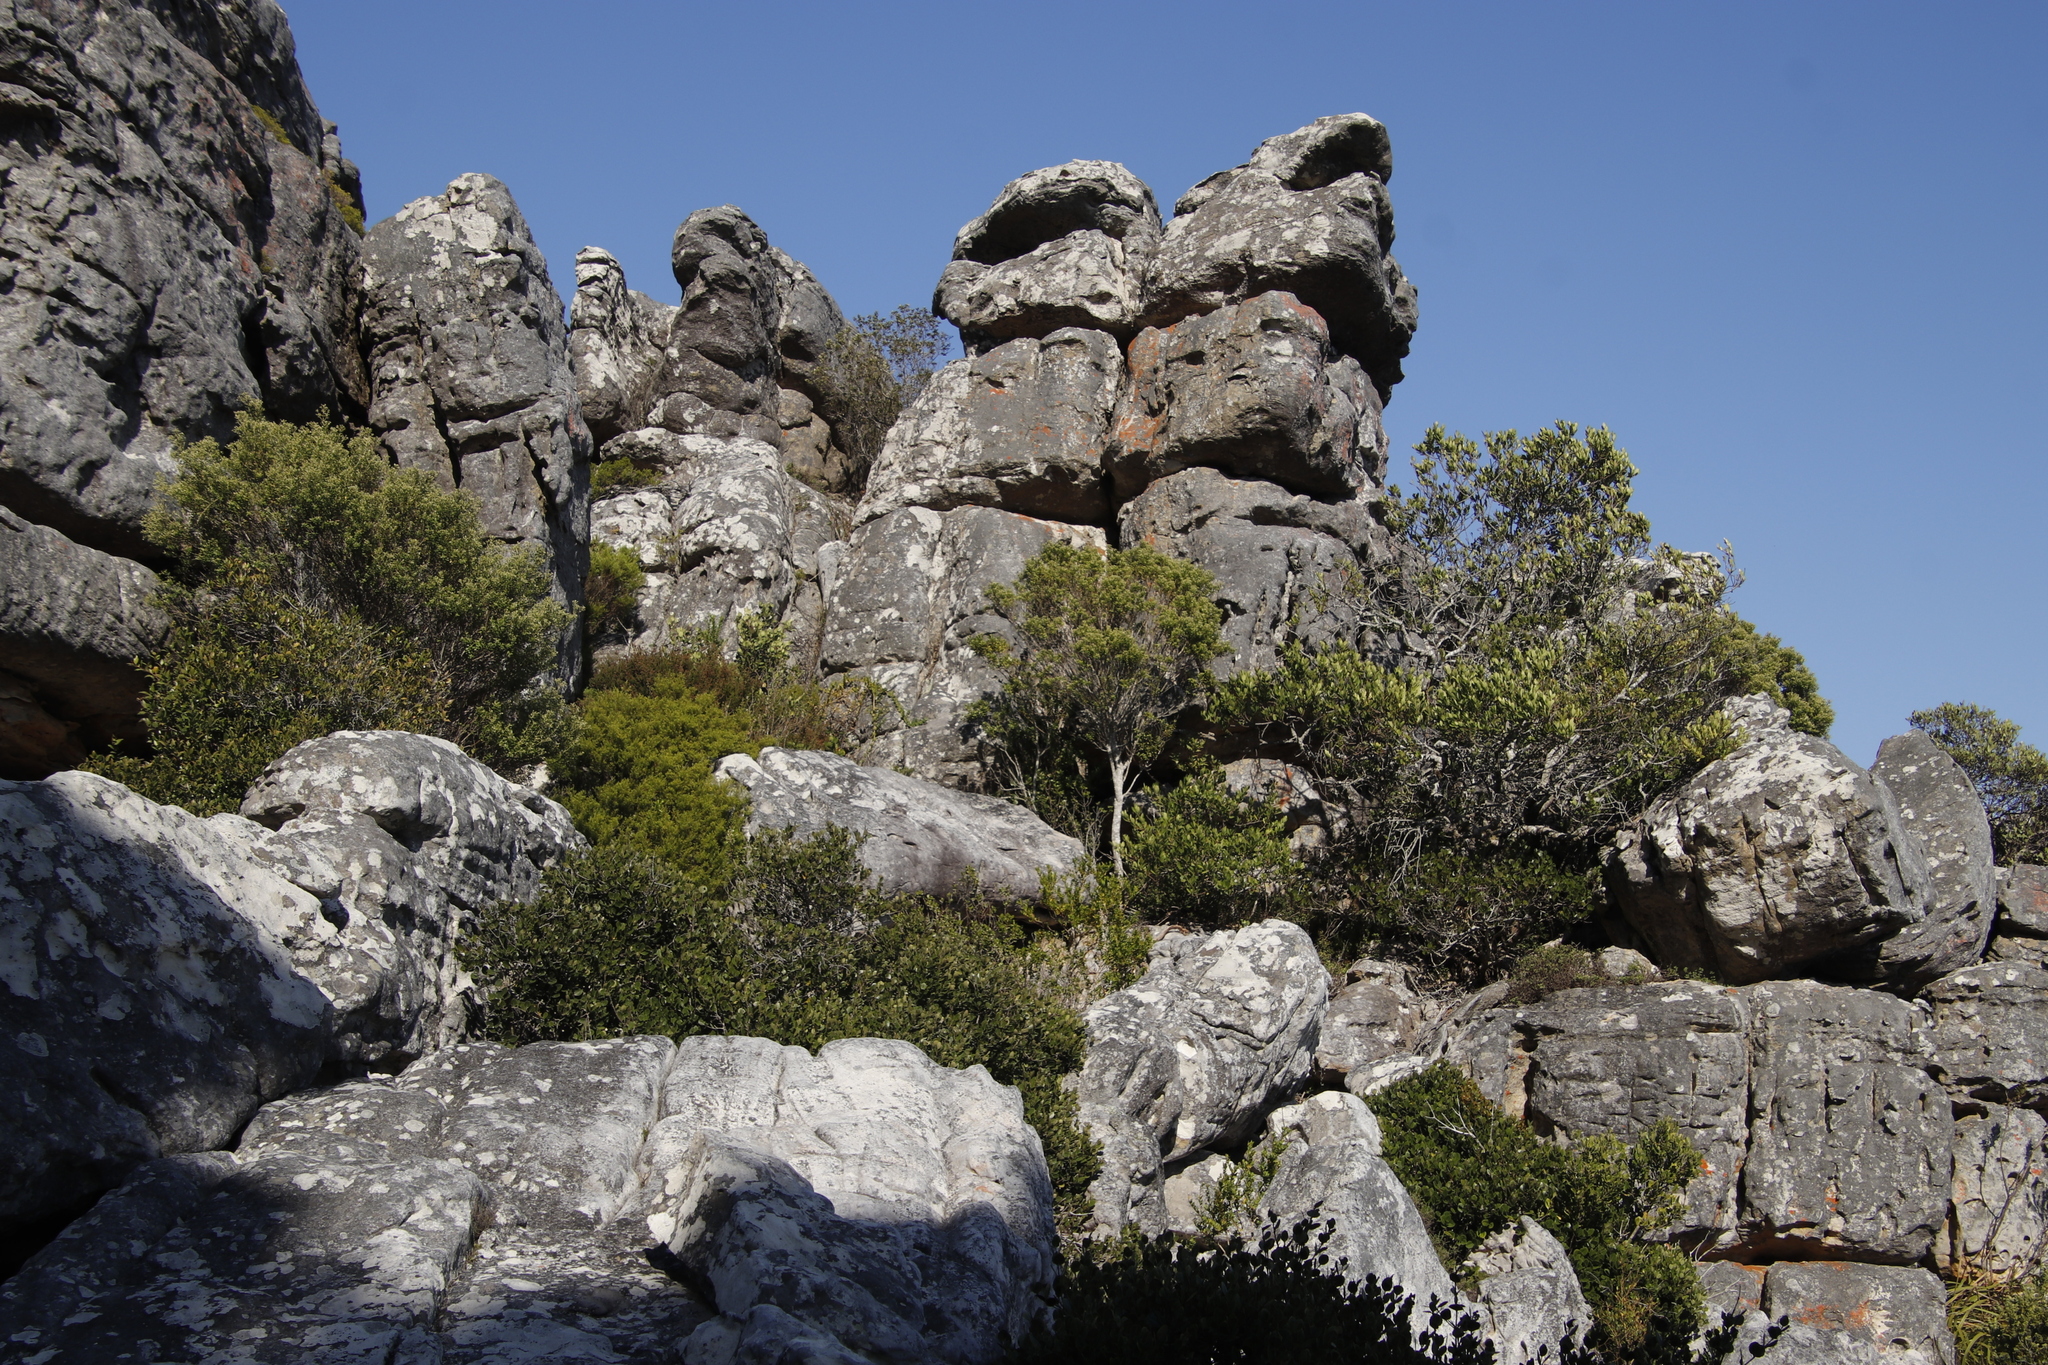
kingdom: Plantae
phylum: Tracheophyta
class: Magnoliopsida
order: Sapindales
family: Rutaceae
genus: Coleonema
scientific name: Coleonema album
